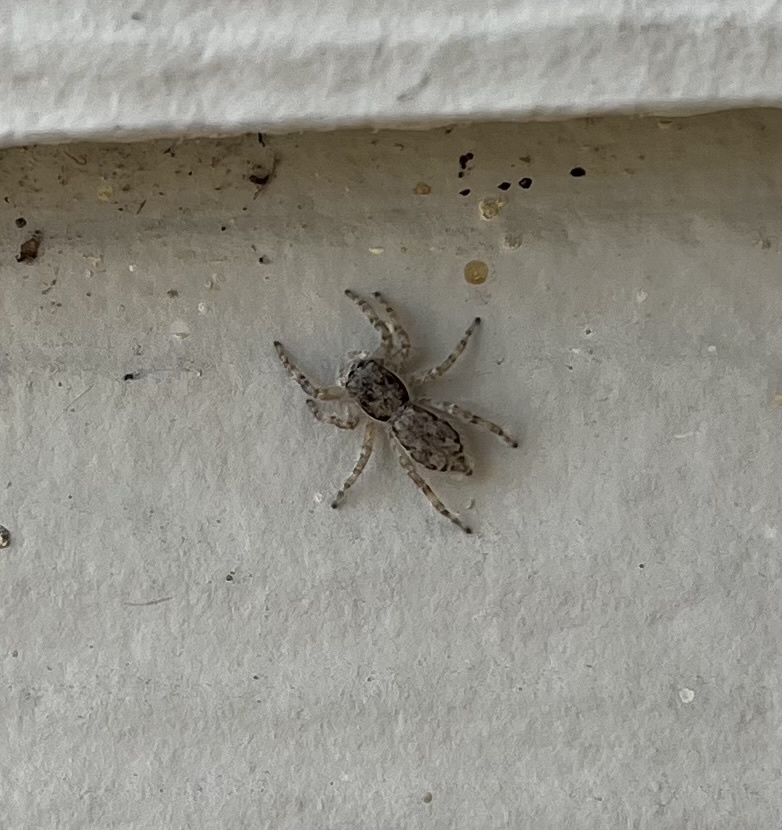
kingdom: Animalia
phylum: Arthropoda
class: Arachnida
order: Araneae
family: Salticidae
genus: Menemerus
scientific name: Menemerus bivittatus
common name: Gray wall jumper
